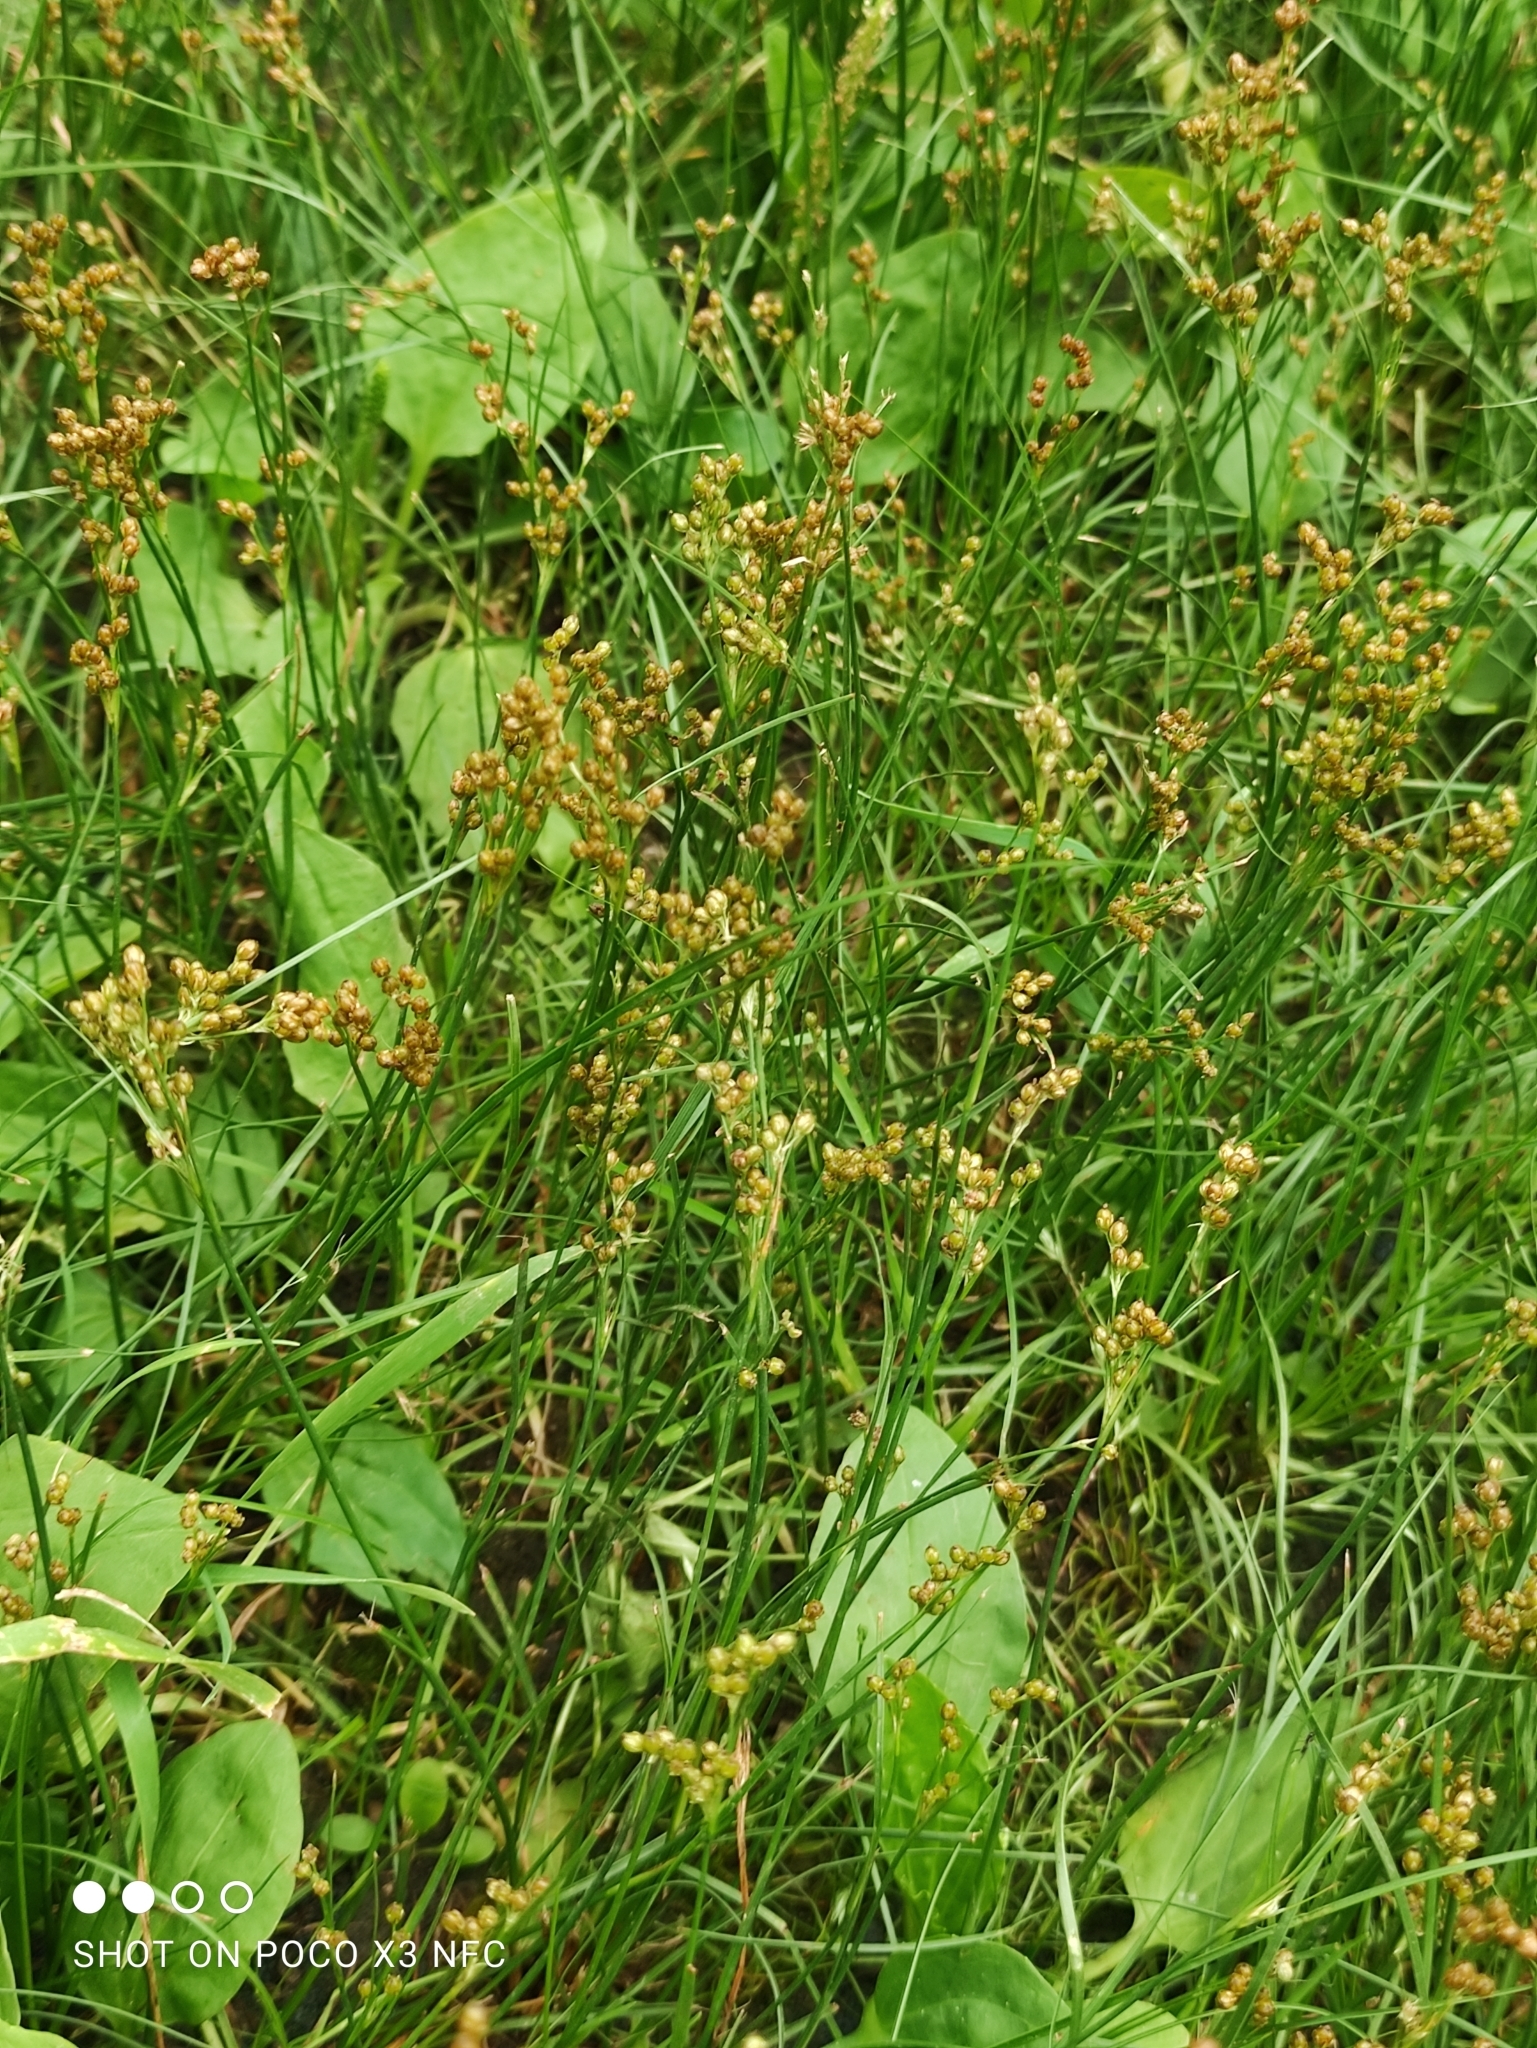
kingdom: Plantae
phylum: Tracheophyta
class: Liliopsida
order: Poales
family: Juncaceae
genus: Juncus
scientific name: Juncus compressus
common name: Round-fruited rush
